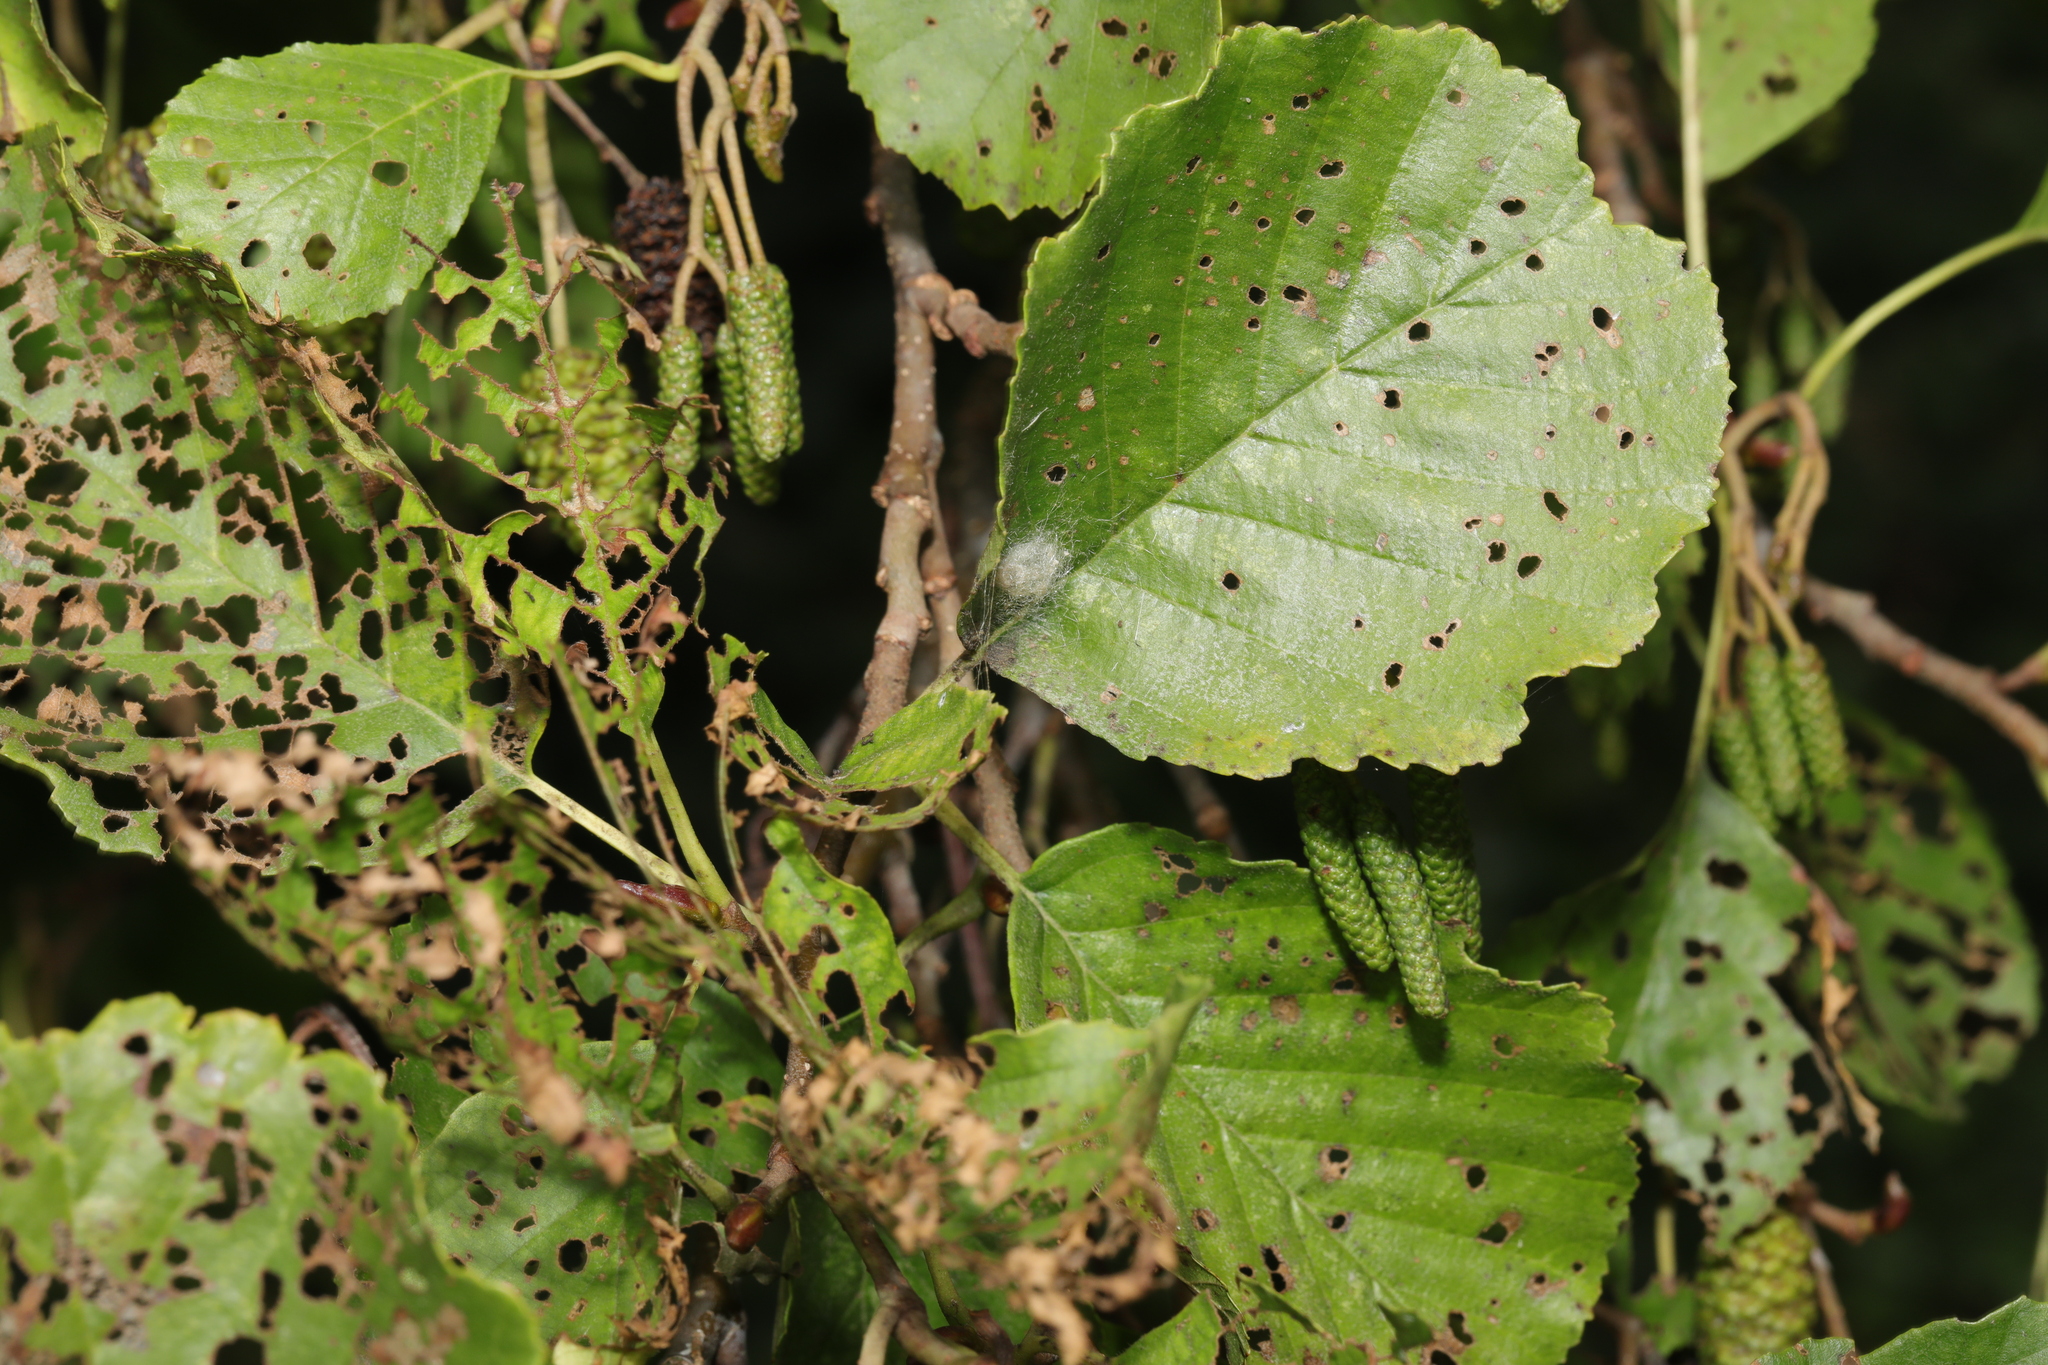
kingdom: Animalia
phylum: Arthropoda
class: Insecta
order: Coleoptera
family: Chrysomelidae
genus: Agelastica
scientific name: Agelastica alni
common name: Alder leaf beetle
